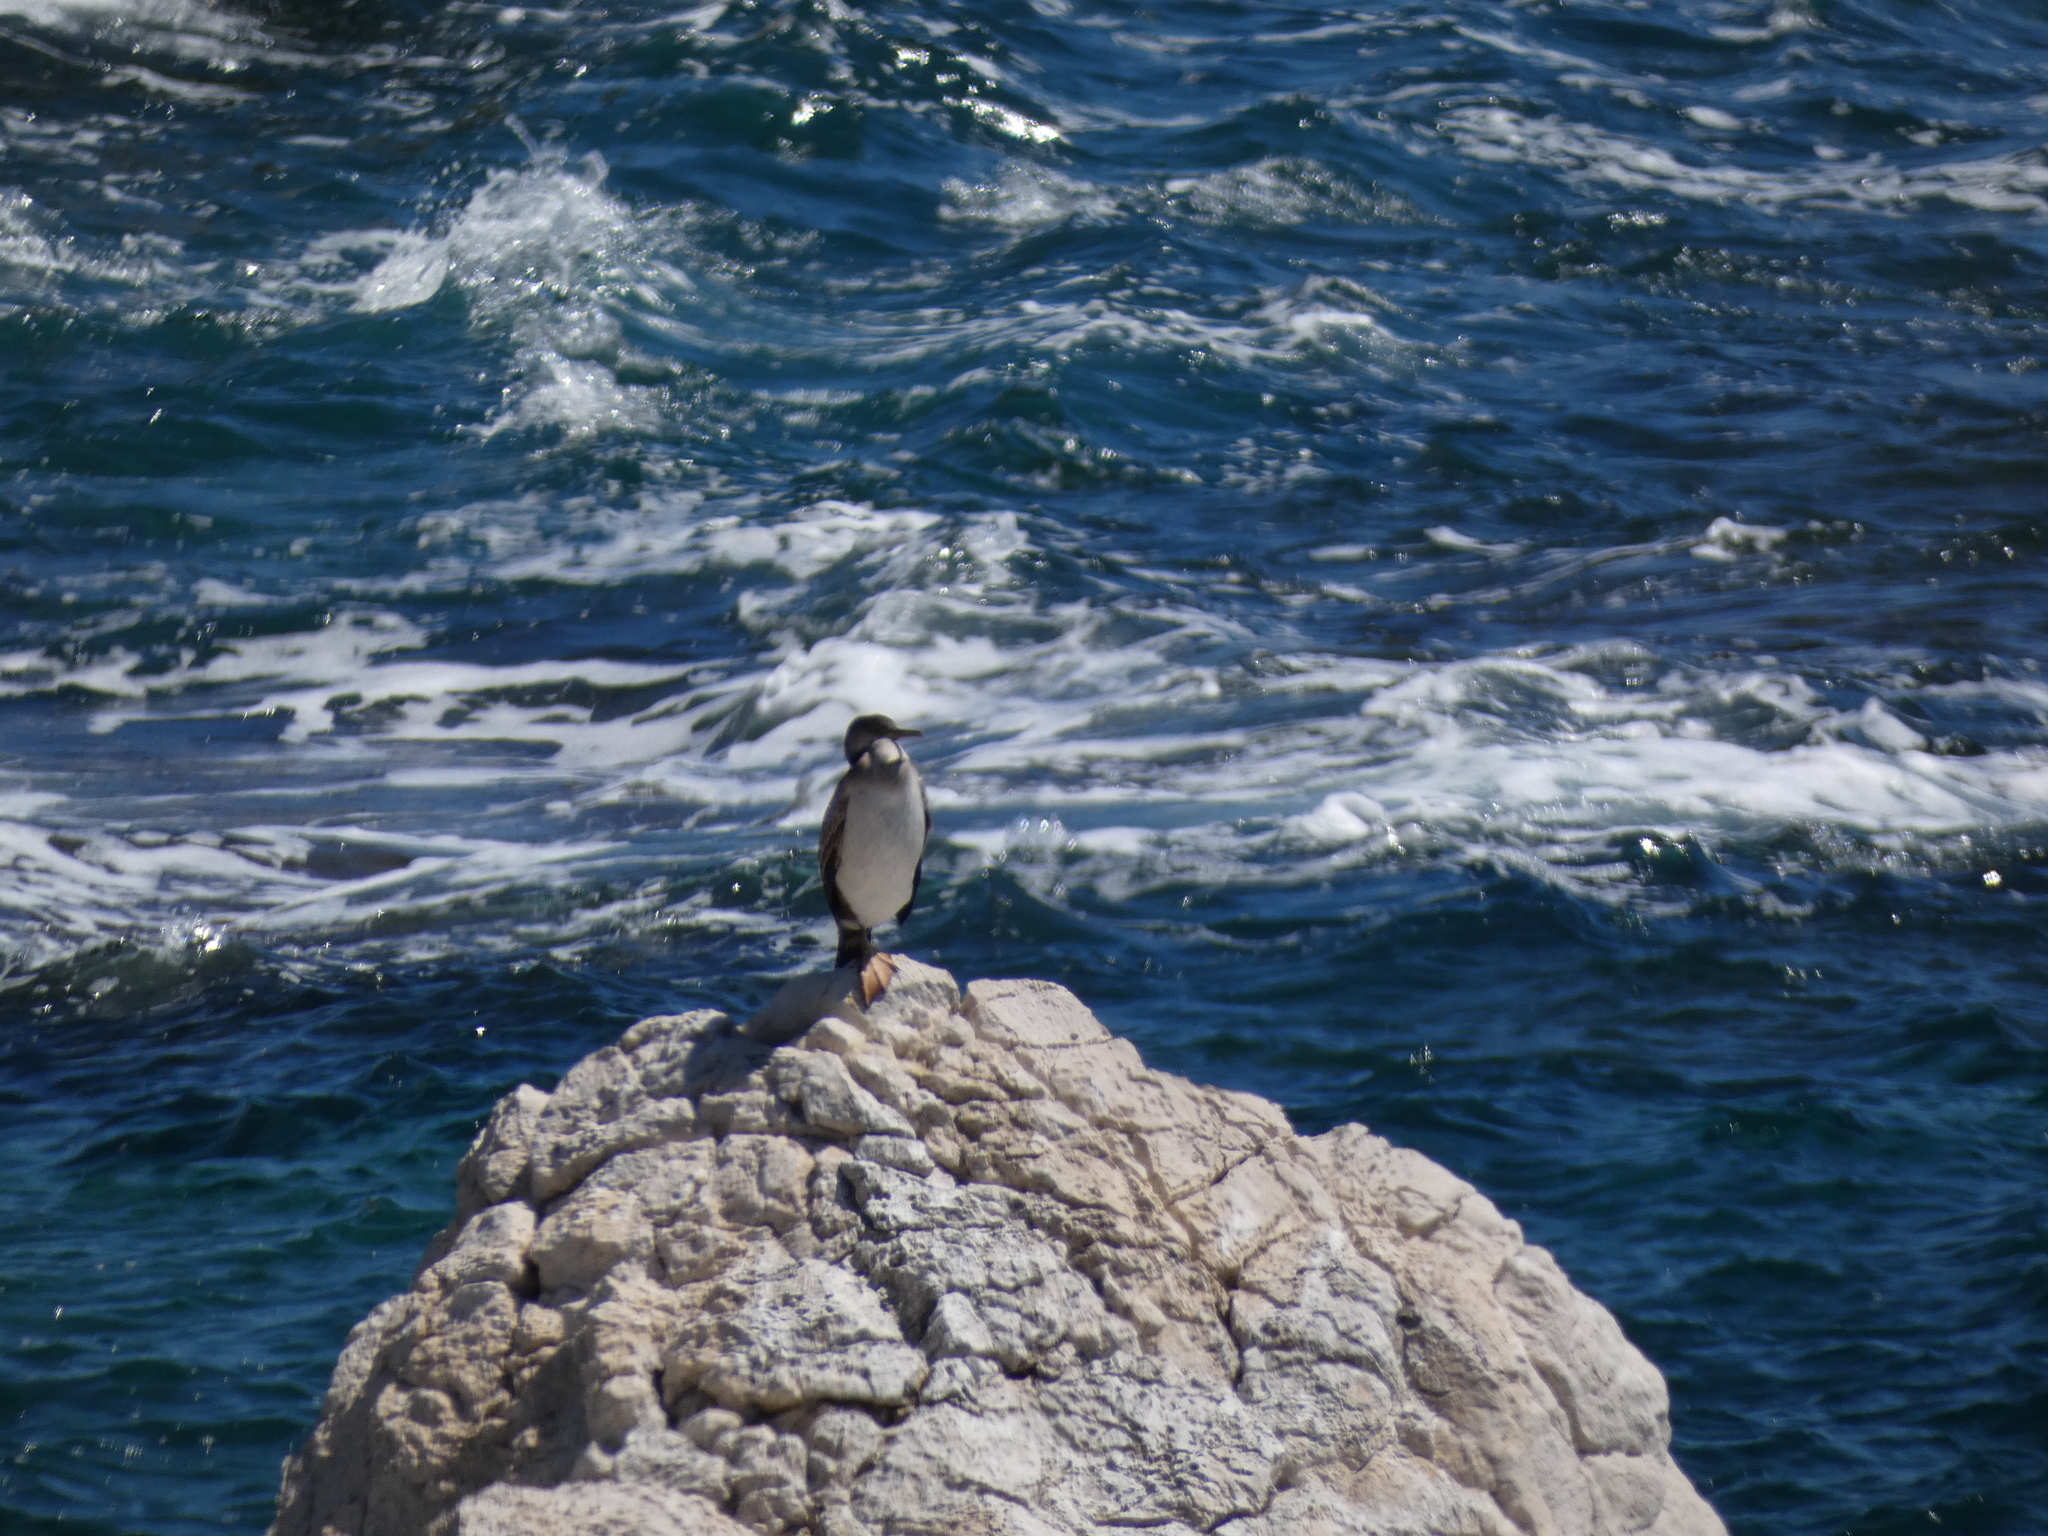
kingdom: Animalia
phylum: Chordata
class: Aves
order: Suliformes
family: Phalacrocoracidae
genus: Phalacrocorax
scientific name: Phalacrocorax aristotelis
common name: European shag
